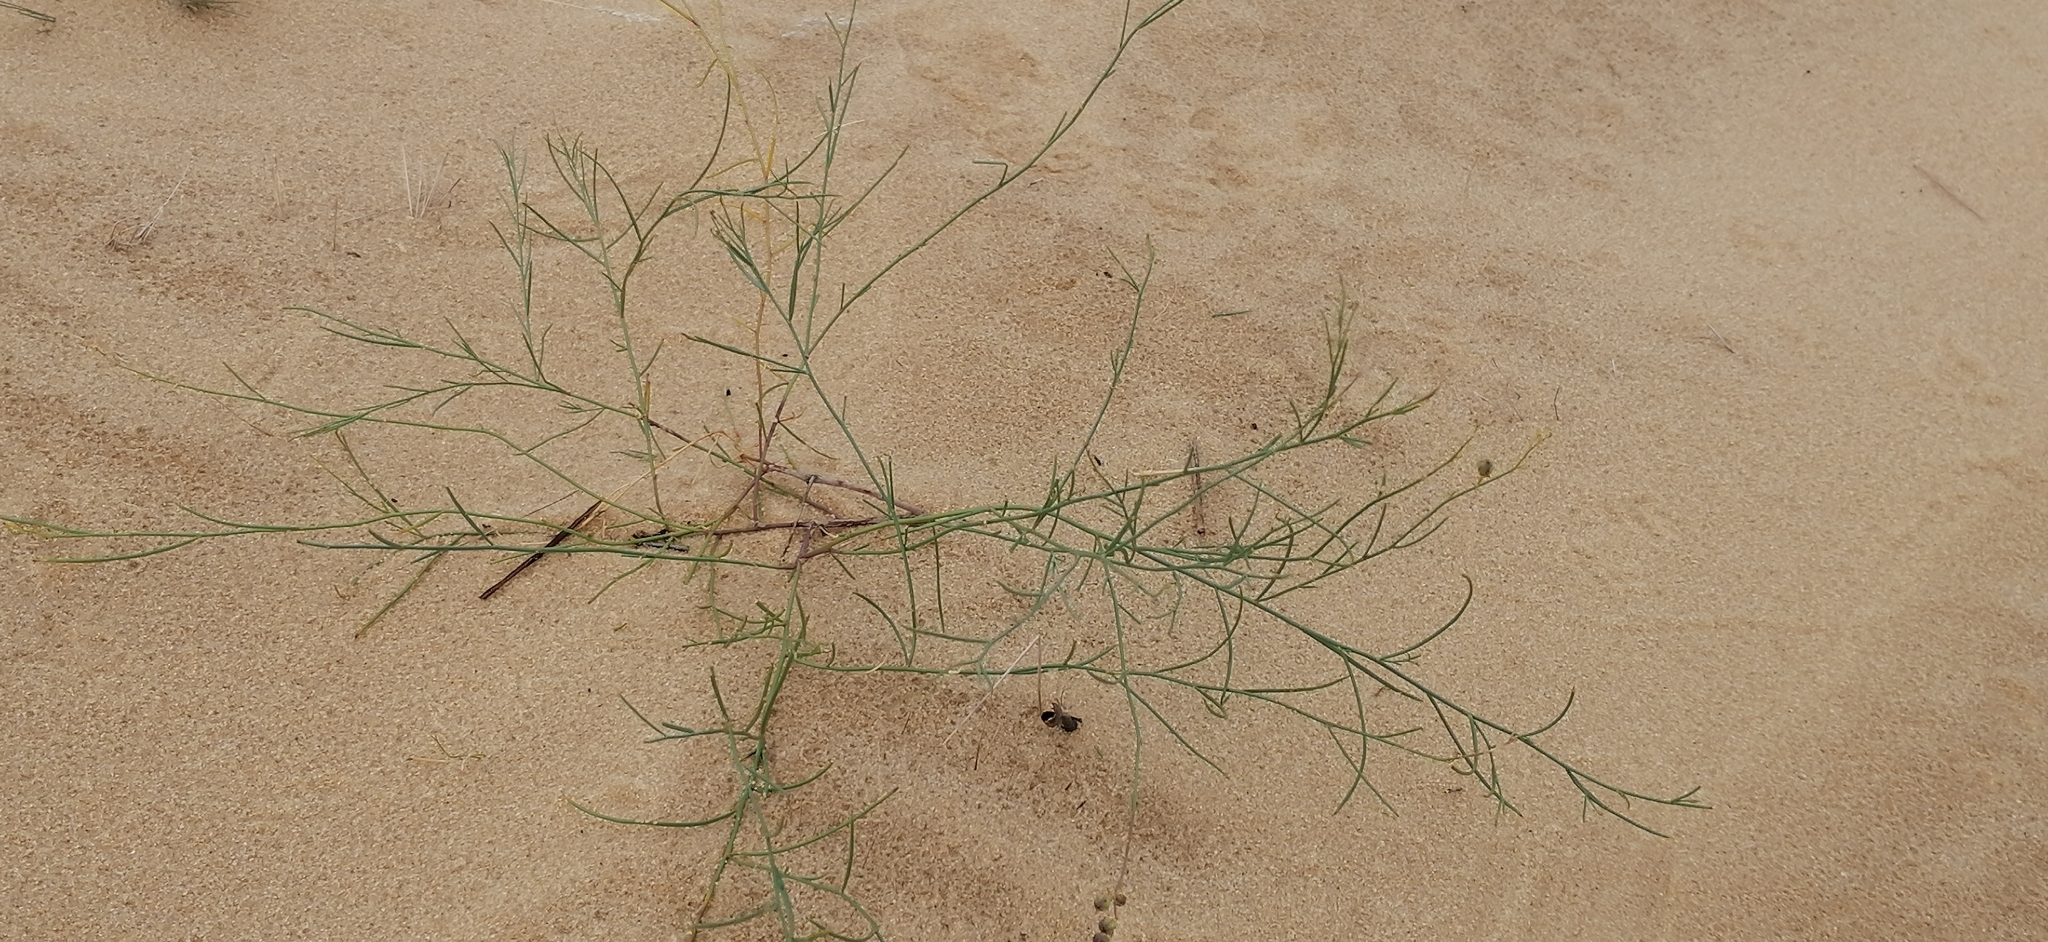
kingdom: Plantae
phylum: Tracheophyta
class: Magnoliopsida
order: Lamiales
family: Plantaginaceae
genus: Linaria
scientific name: Linaria odora
